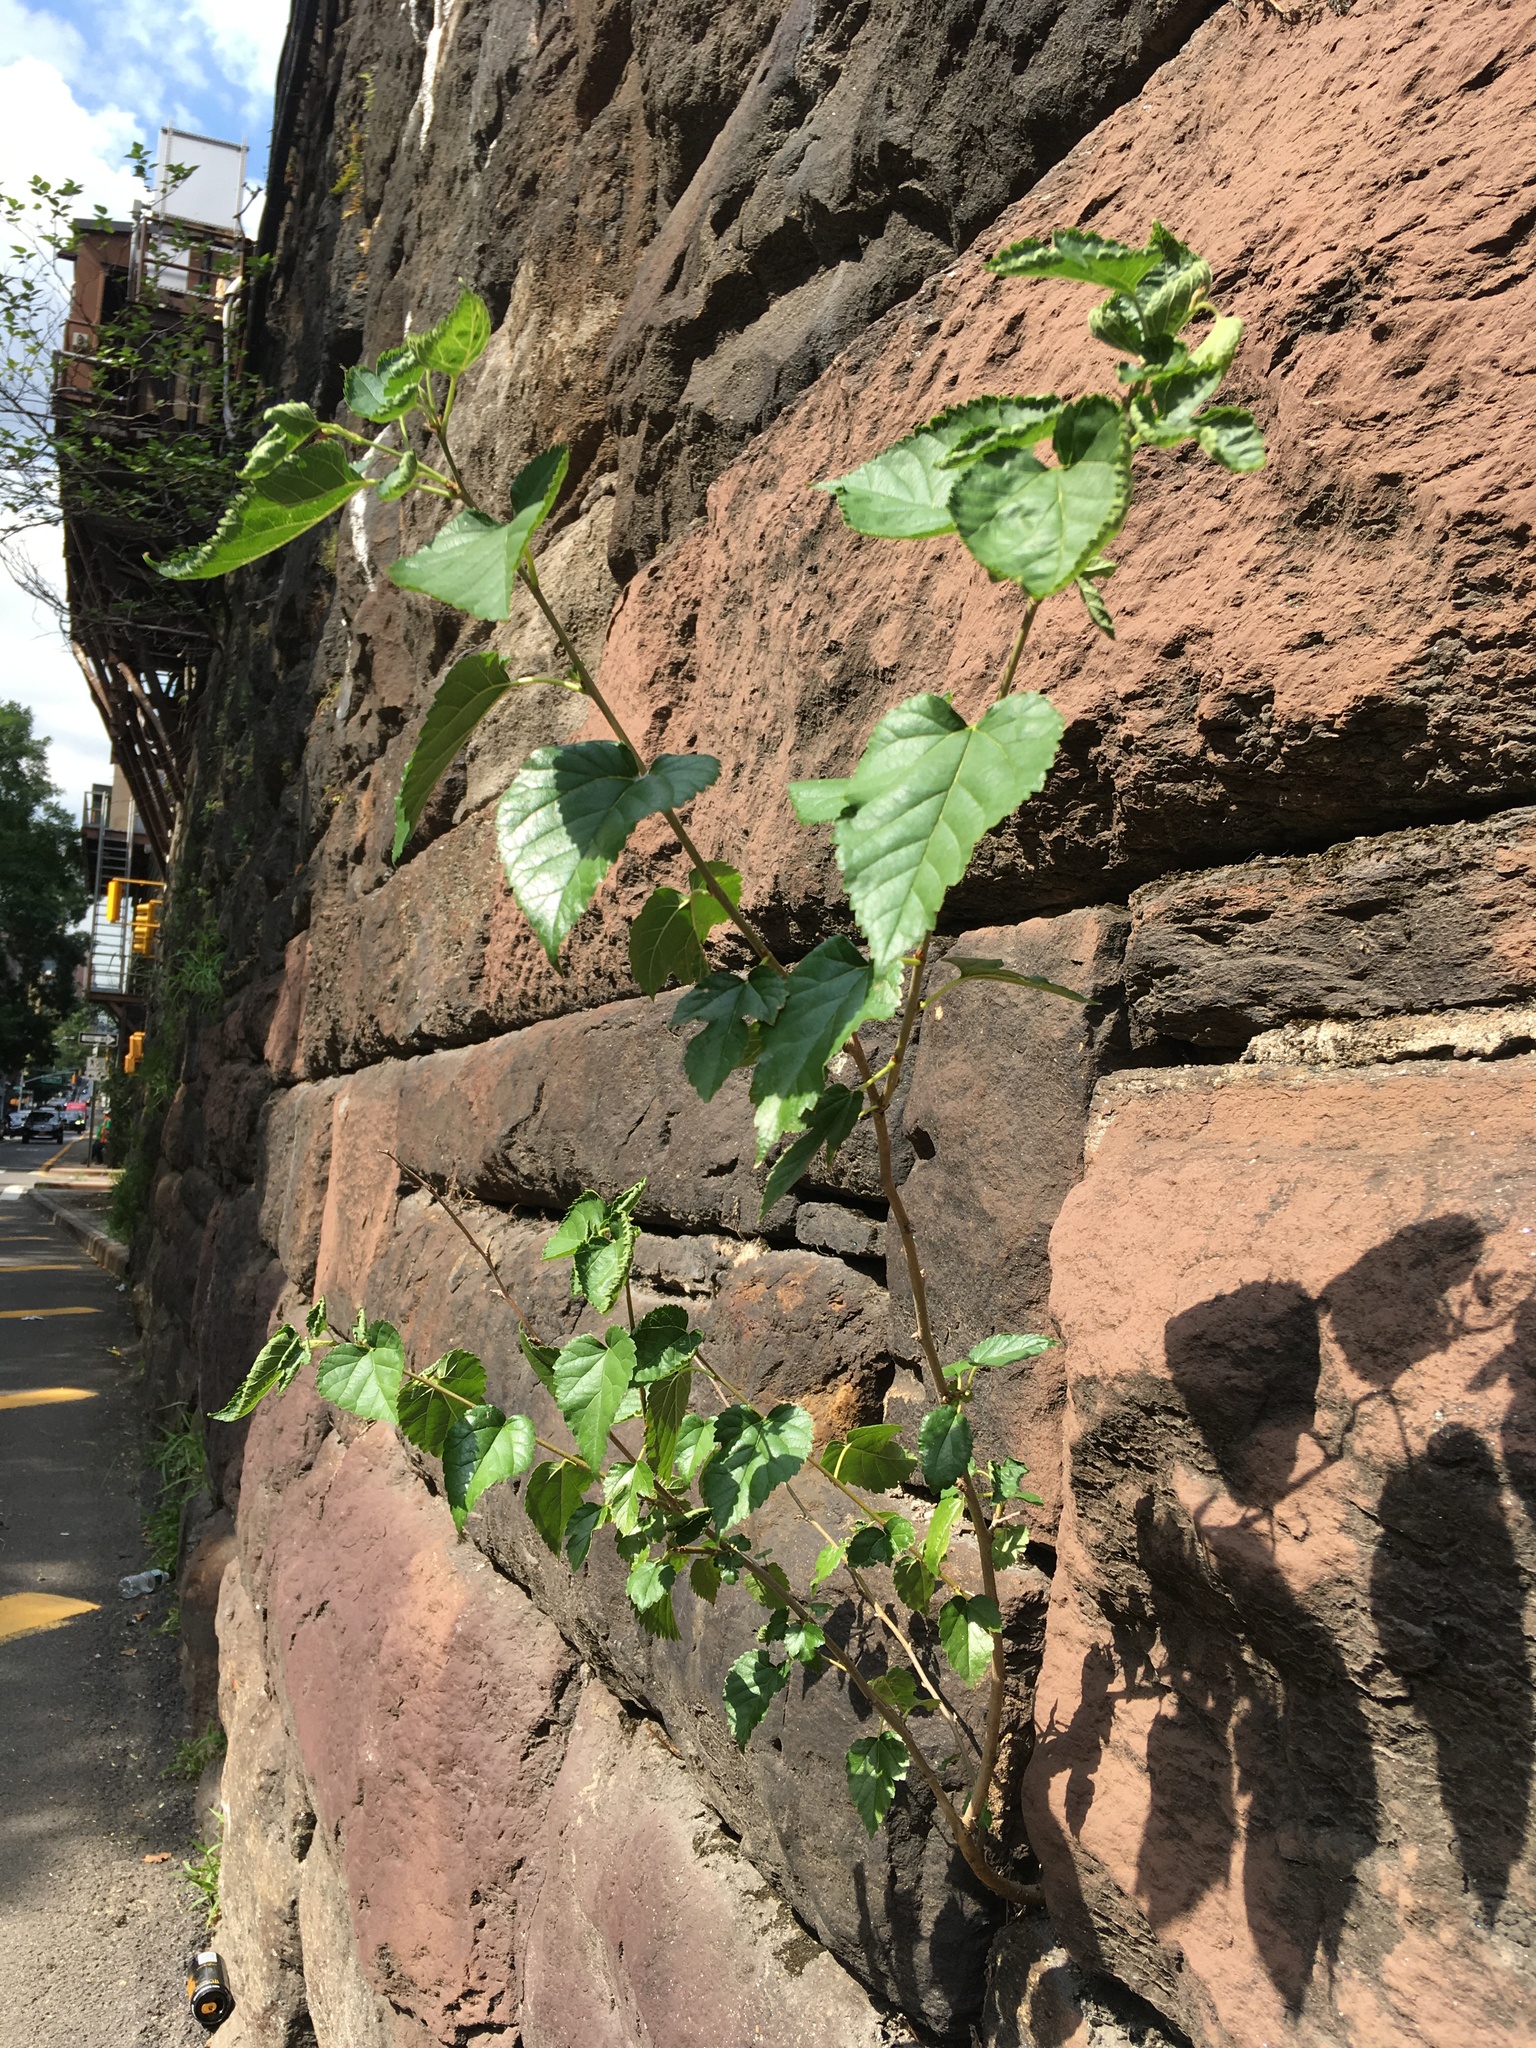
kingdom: Plantae
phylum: Tracheophyta
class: Magnoliopsida
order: Rosales
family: Moraceae
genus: Morus
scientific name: Morus alba
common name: White mulberry
